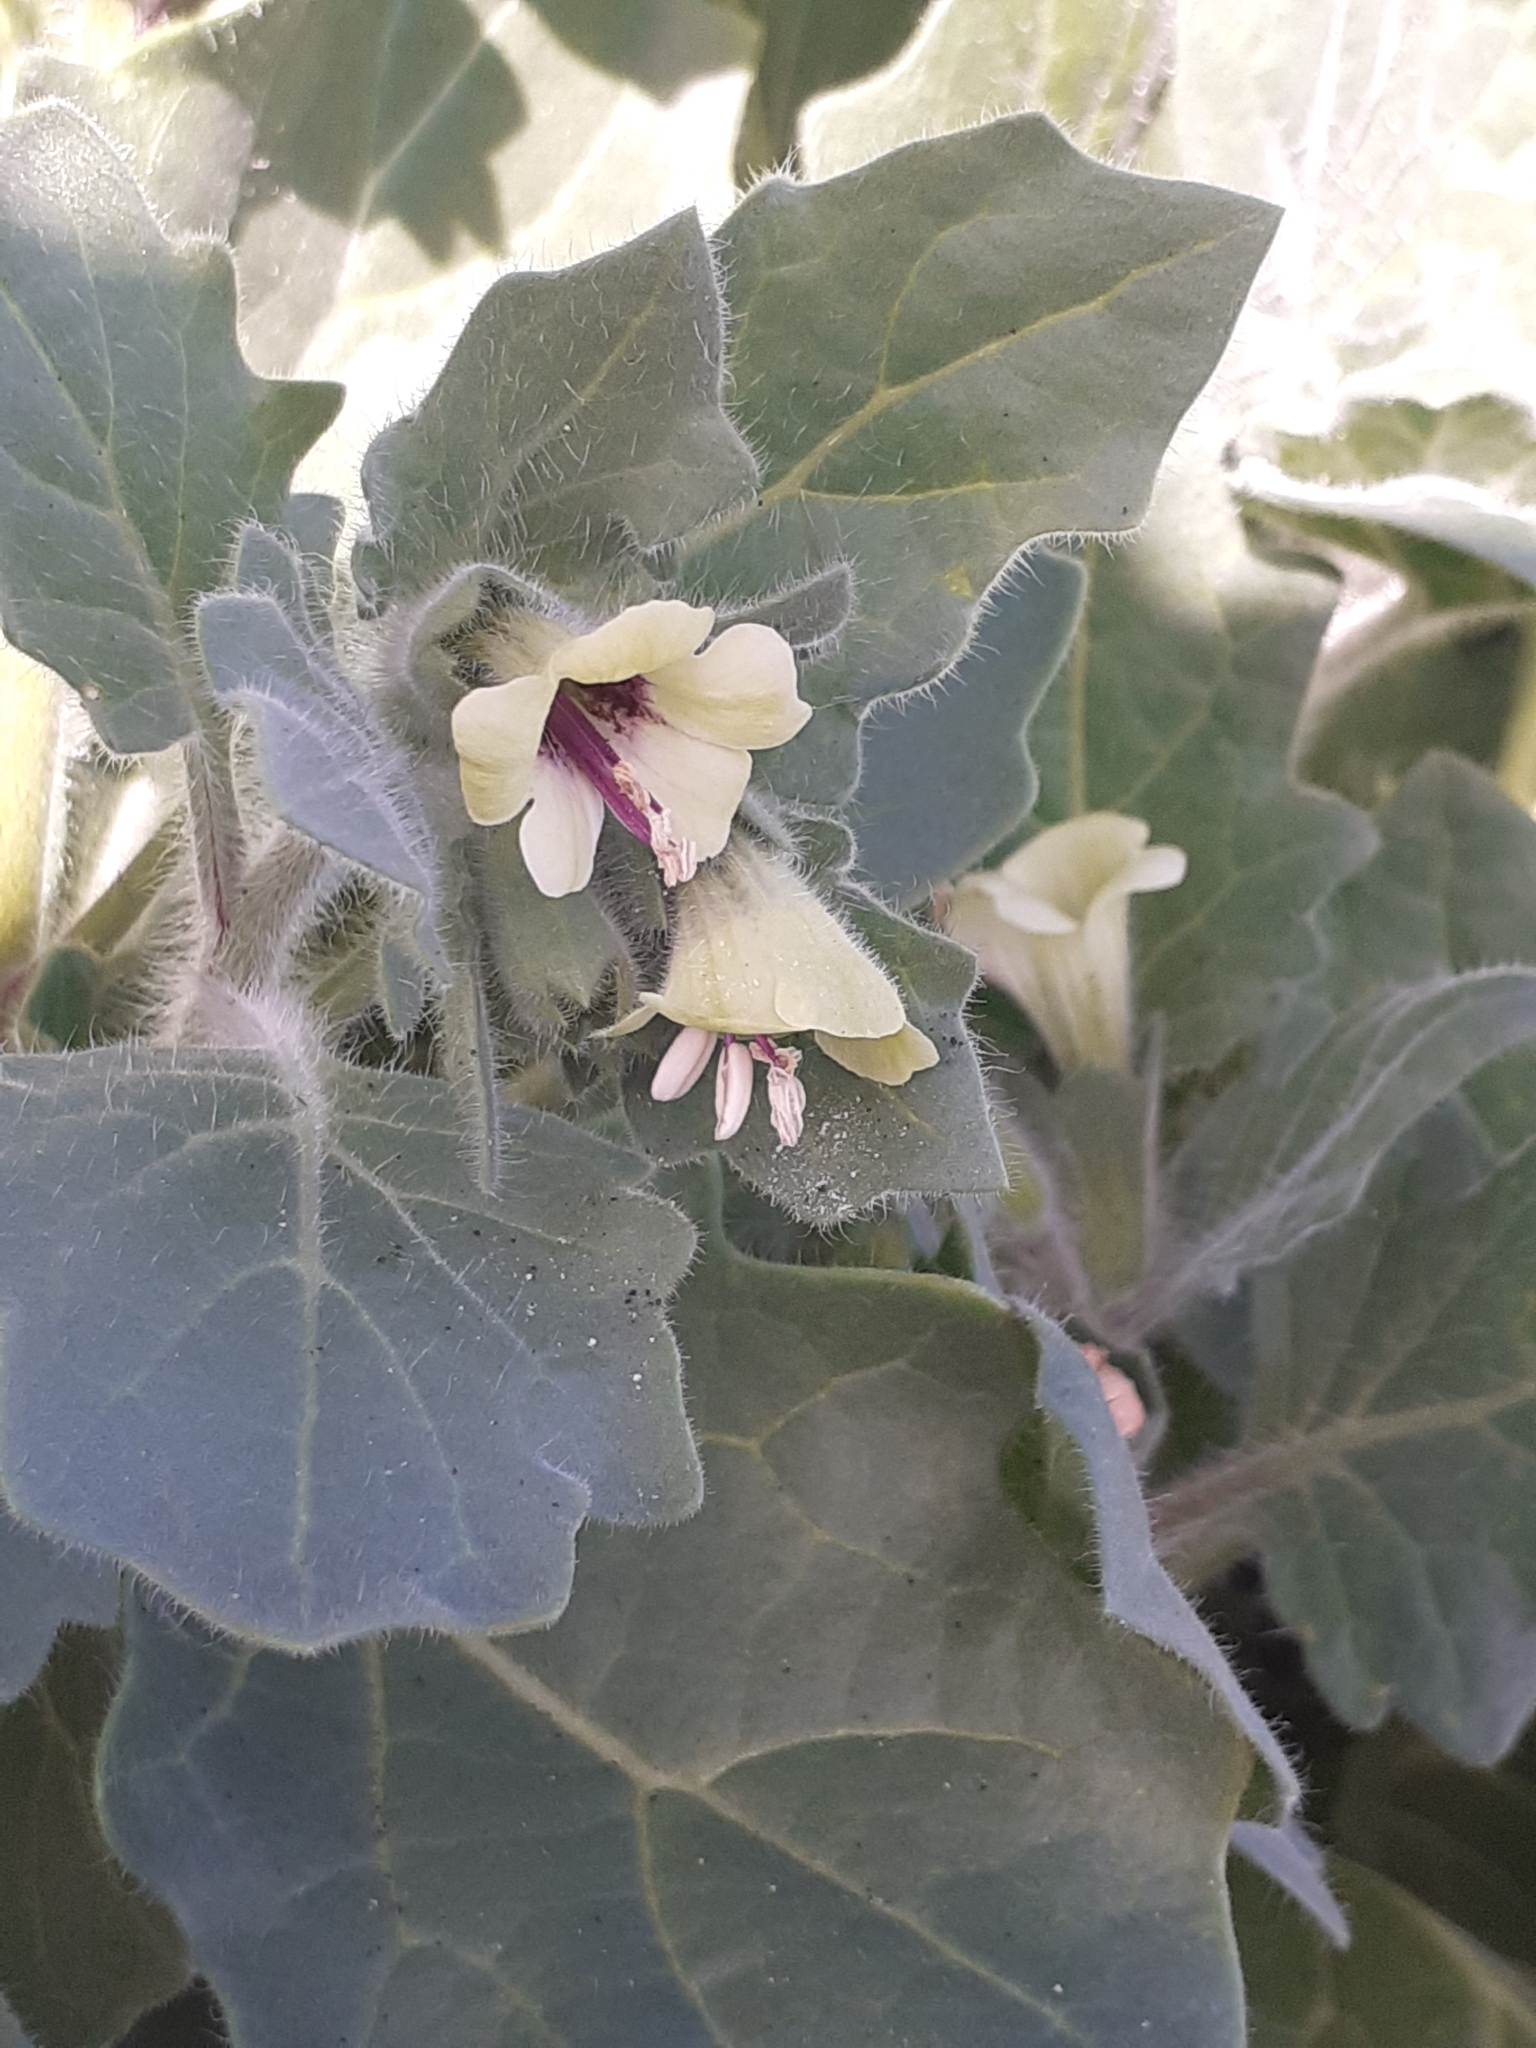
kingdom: Plantae
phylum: Tracheophyta
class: Magnoliopsida
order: Solanales
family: Solanaceae
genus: Hyoscyamus
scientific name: Hyoscyamus albus
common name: White henbane
